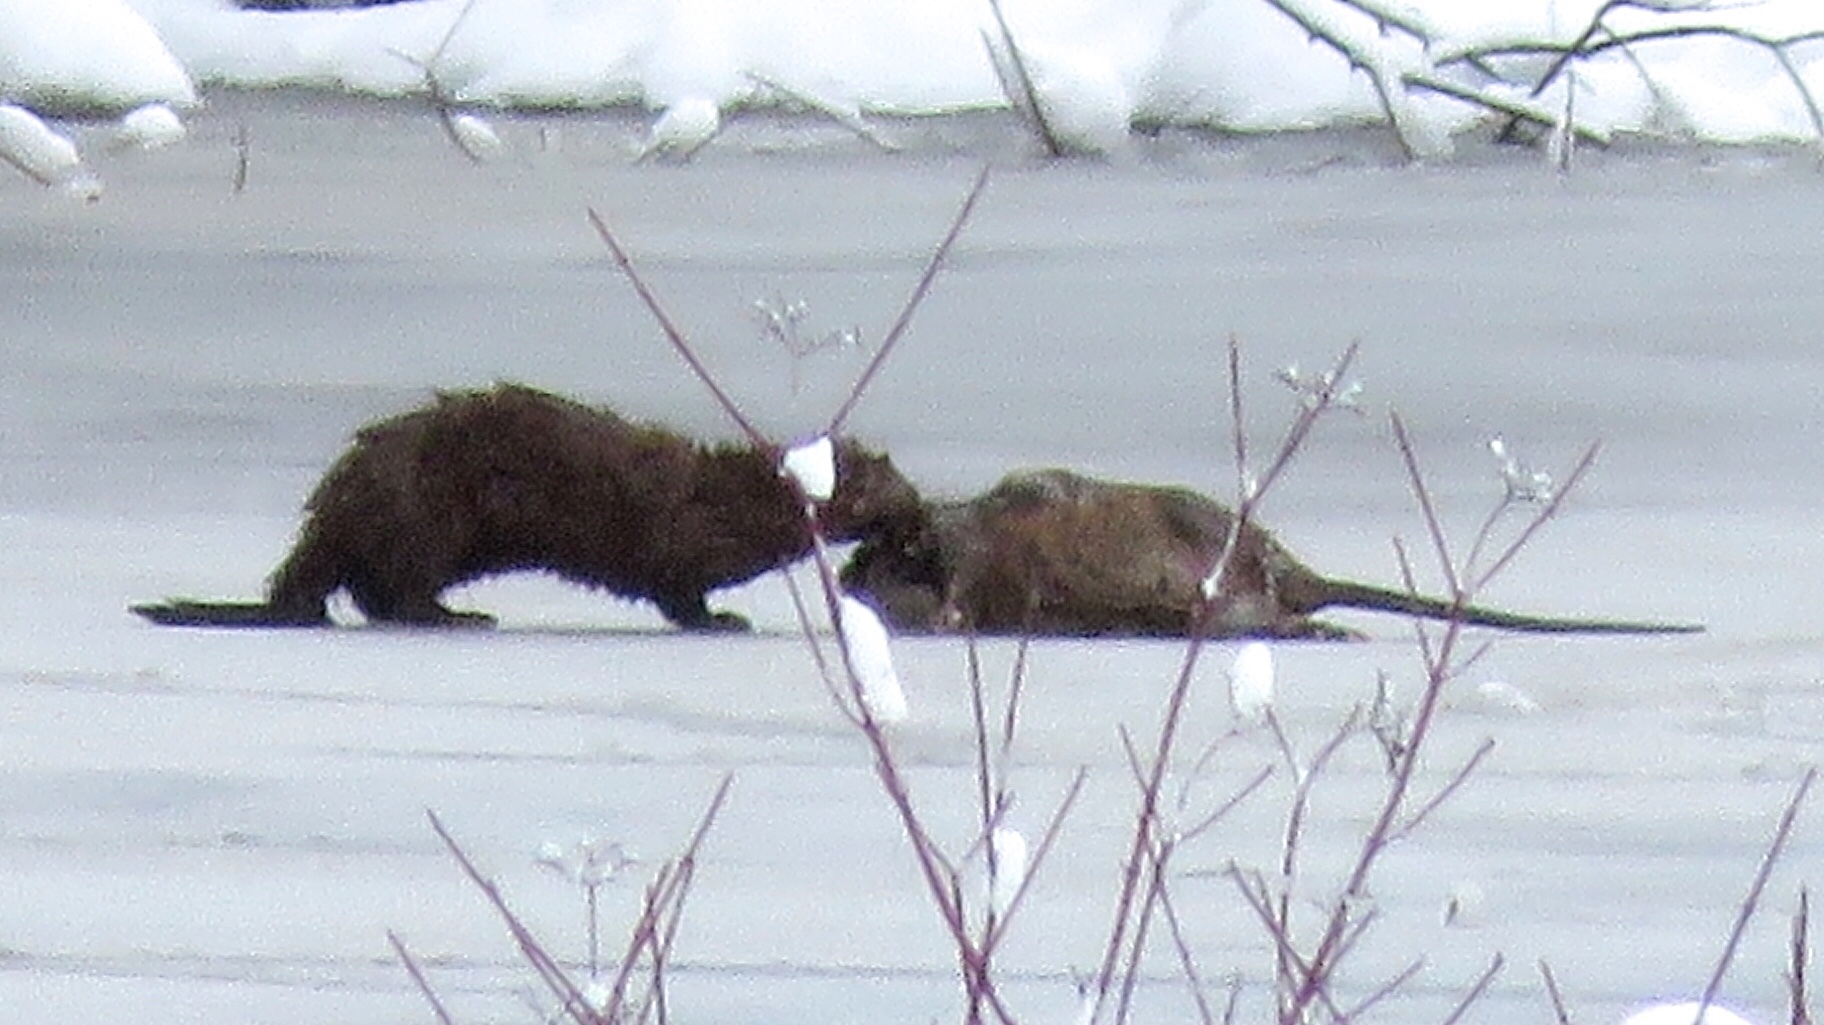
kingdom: Animalia
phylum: Chordata
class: Mammalia
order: Carnivora
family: Mustelidae
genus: Mustela
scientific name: Mustela
